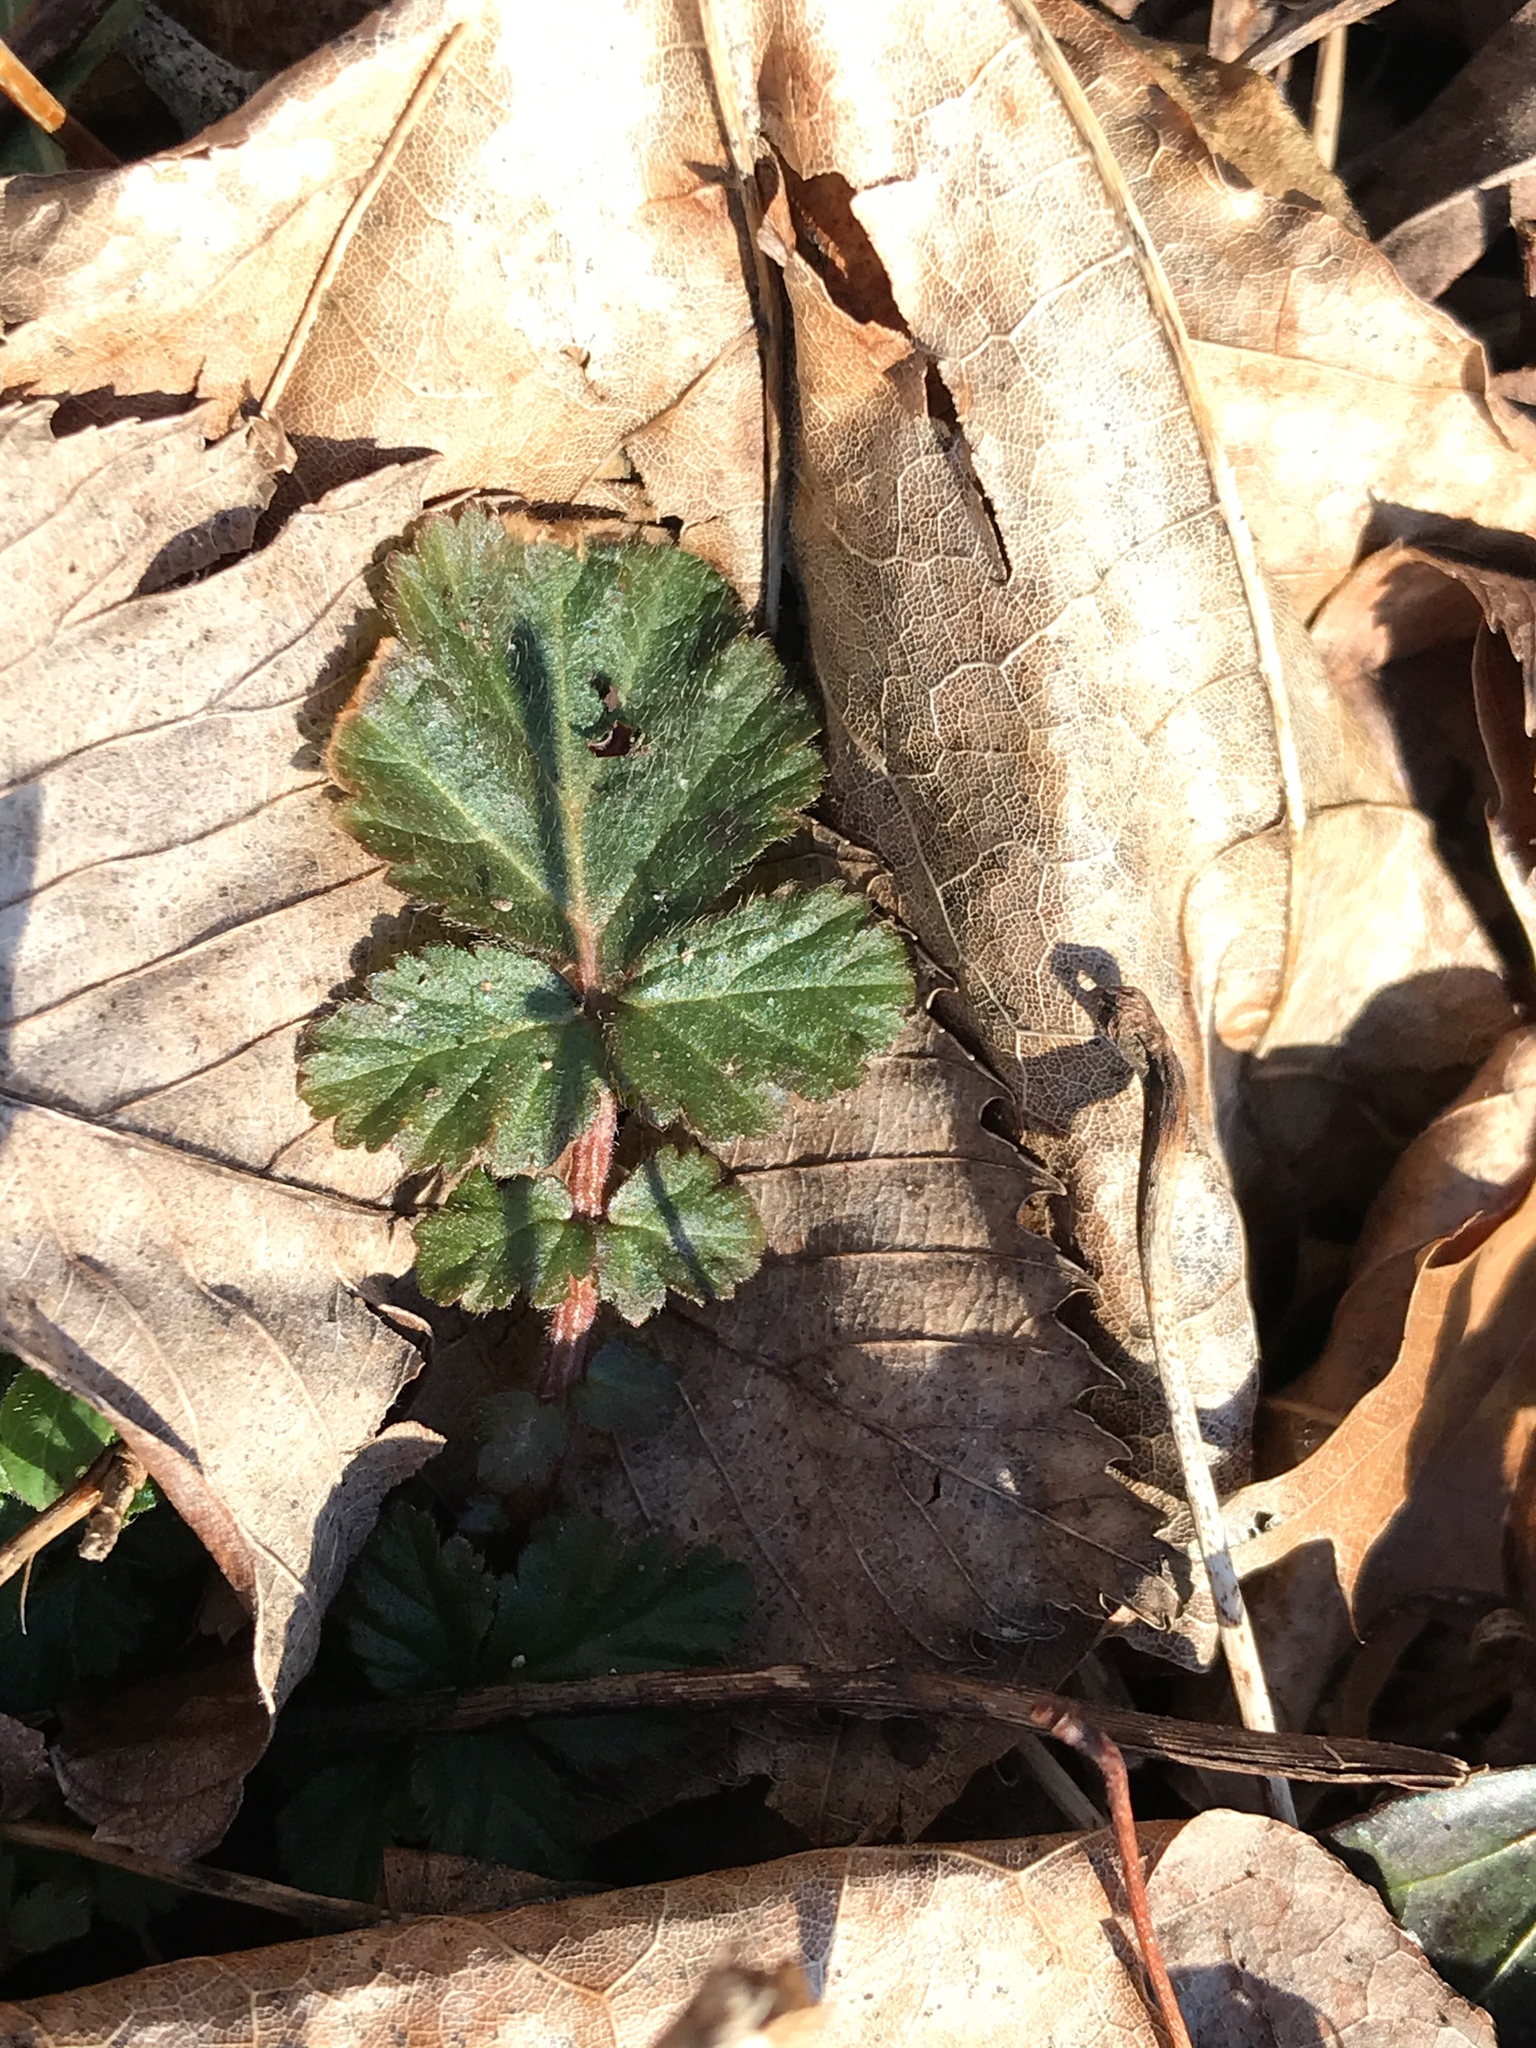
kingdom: Plantae
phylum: Tracheophyta
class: Magnoliopsida
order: Rosales
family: Rosaceae
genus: Geum
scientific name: Geum canadense
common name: White avens
